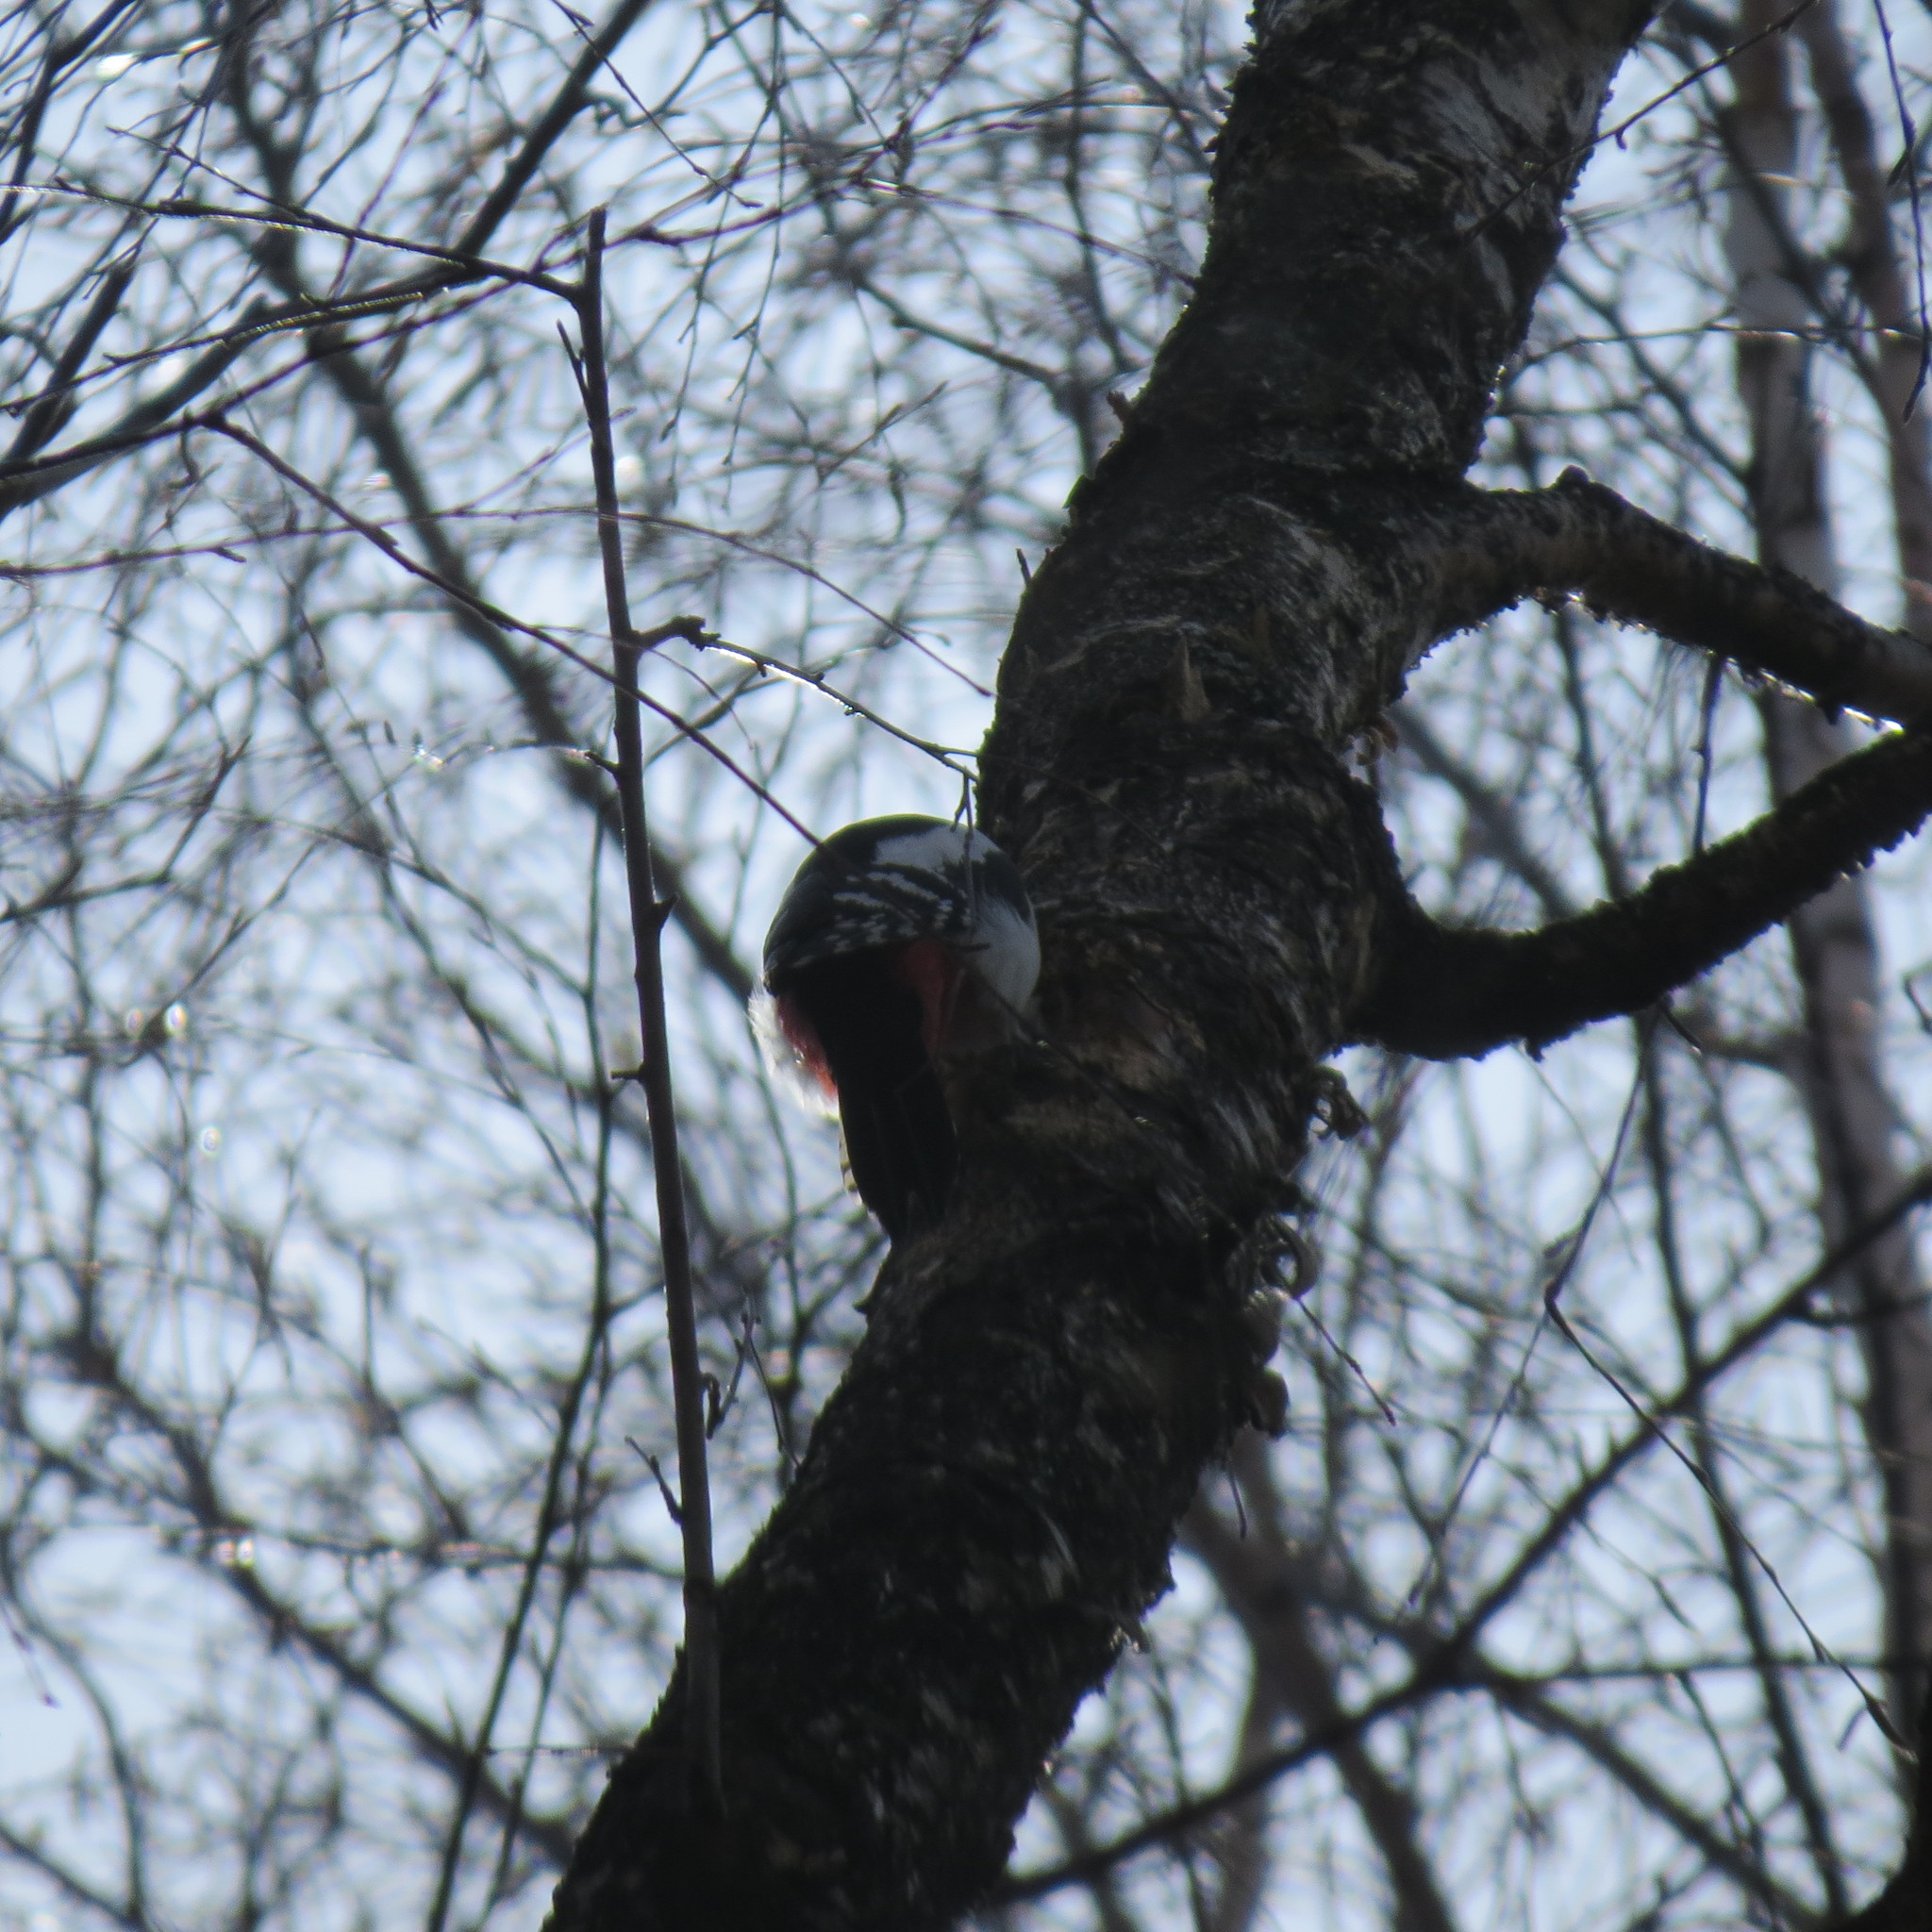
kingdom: Animalia
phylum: Chordata
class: Aves
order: Piciformes
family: Picidae
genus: Dendrocopos
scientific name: Dendrocopos major
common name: Great spotted woodpecker
